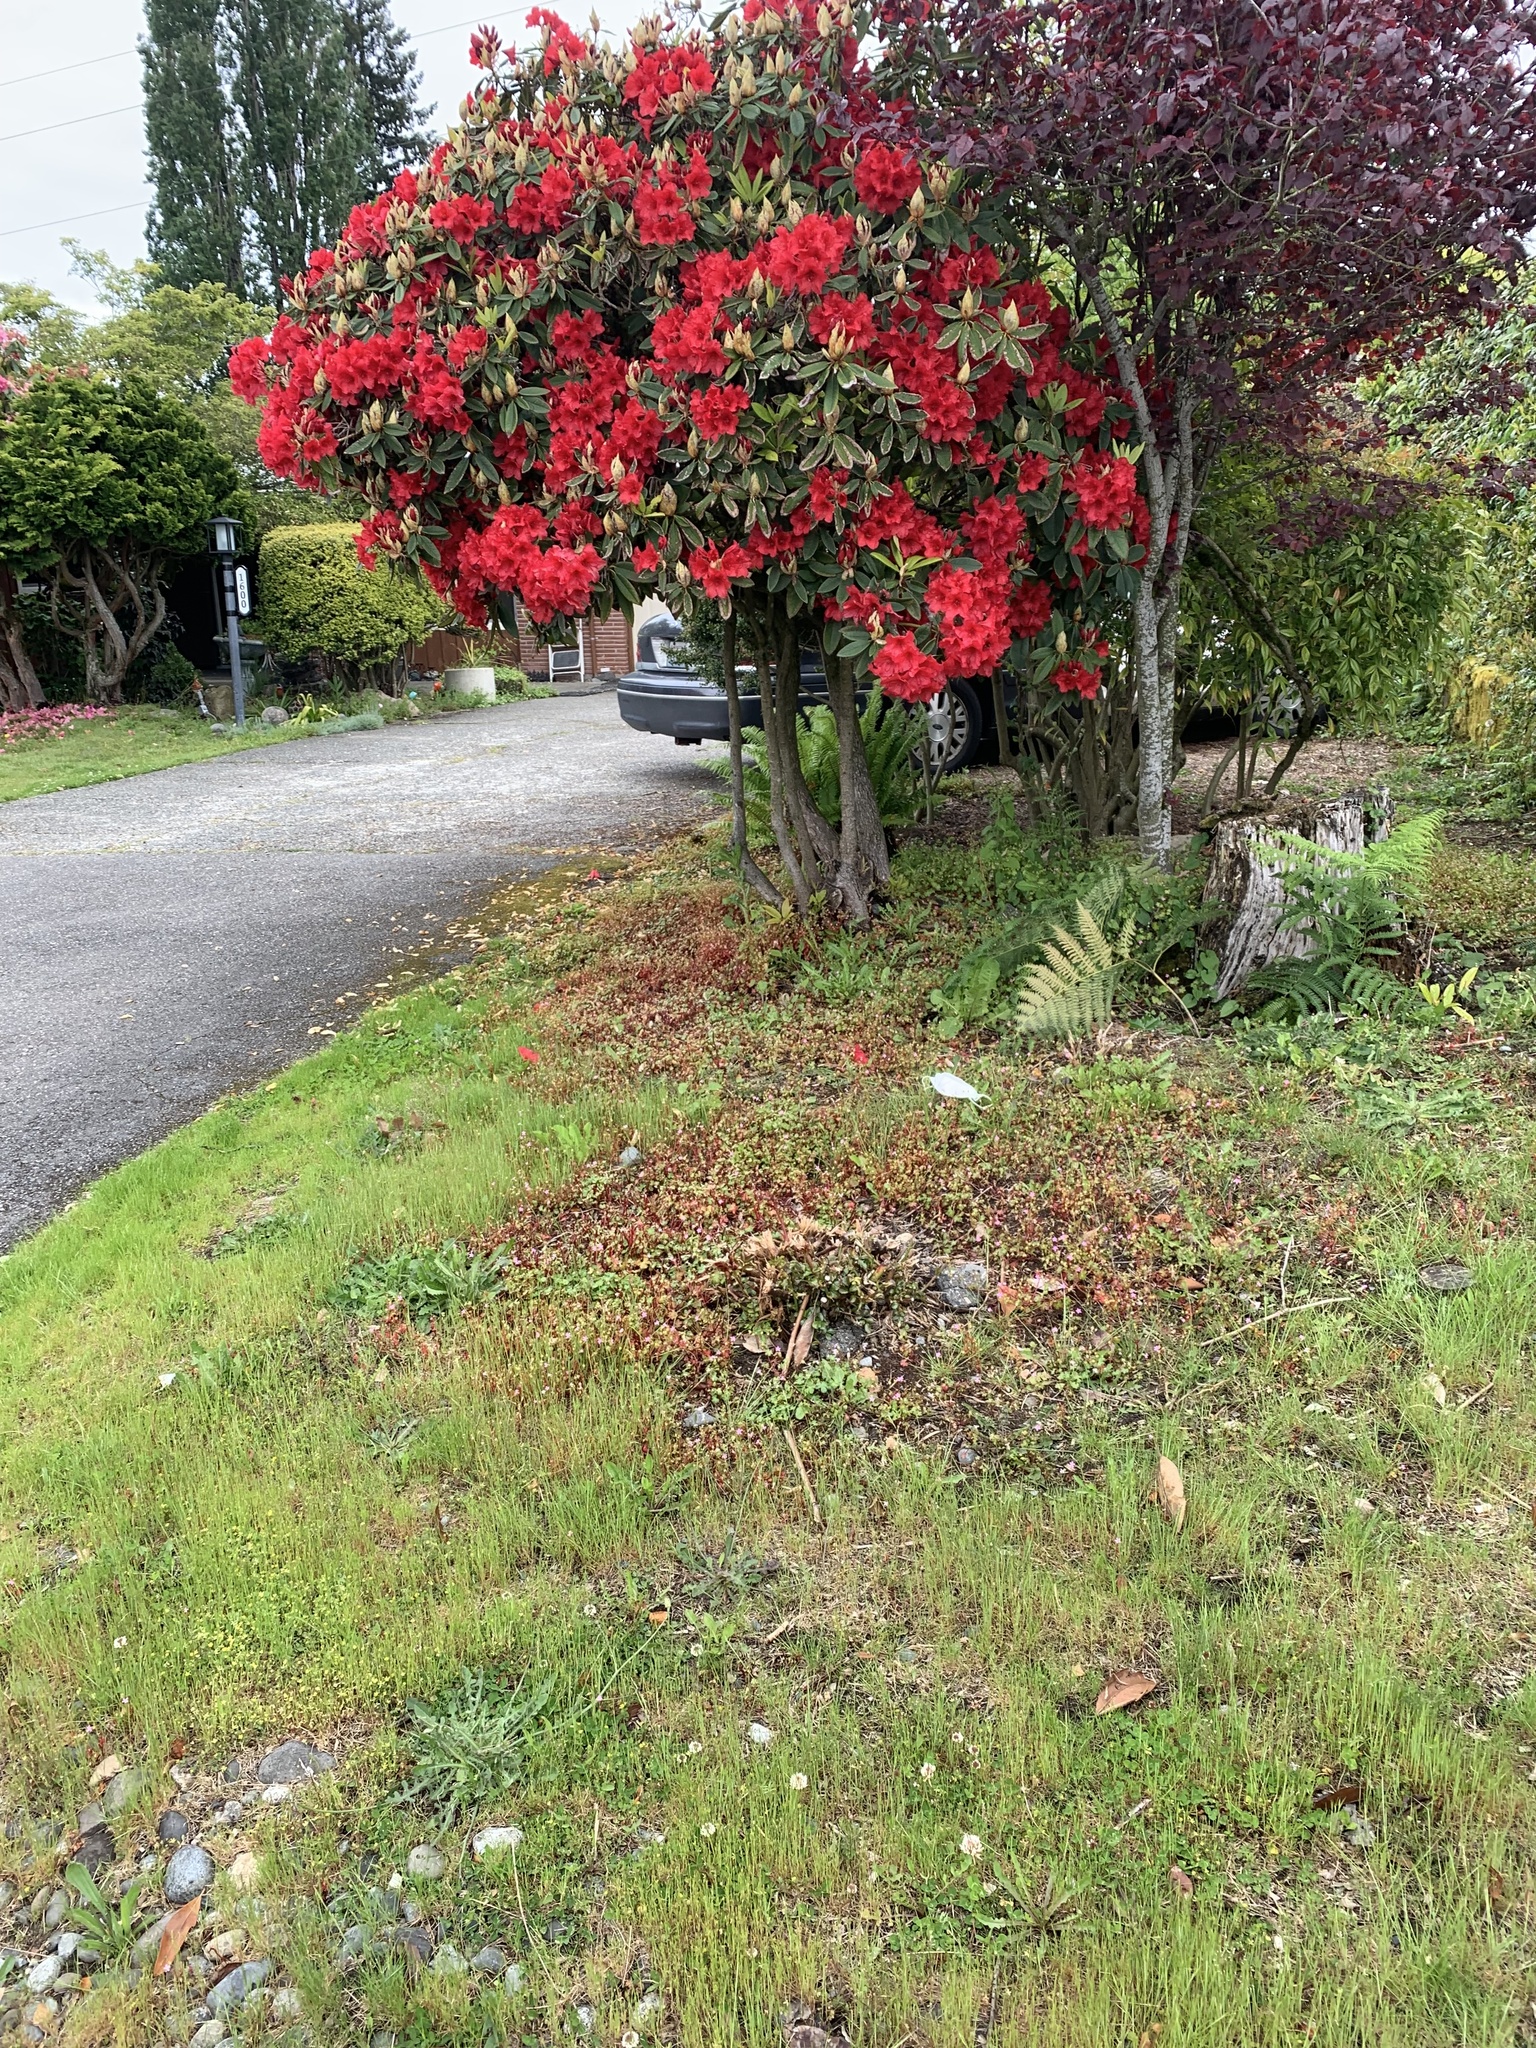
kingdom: Plantae
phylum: Tracheophyta
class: Magnoliopsida
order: Geraniales
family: Geraniaceae
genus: Geranium
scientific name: Geranium lucidum
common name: Shining crane's-bill
